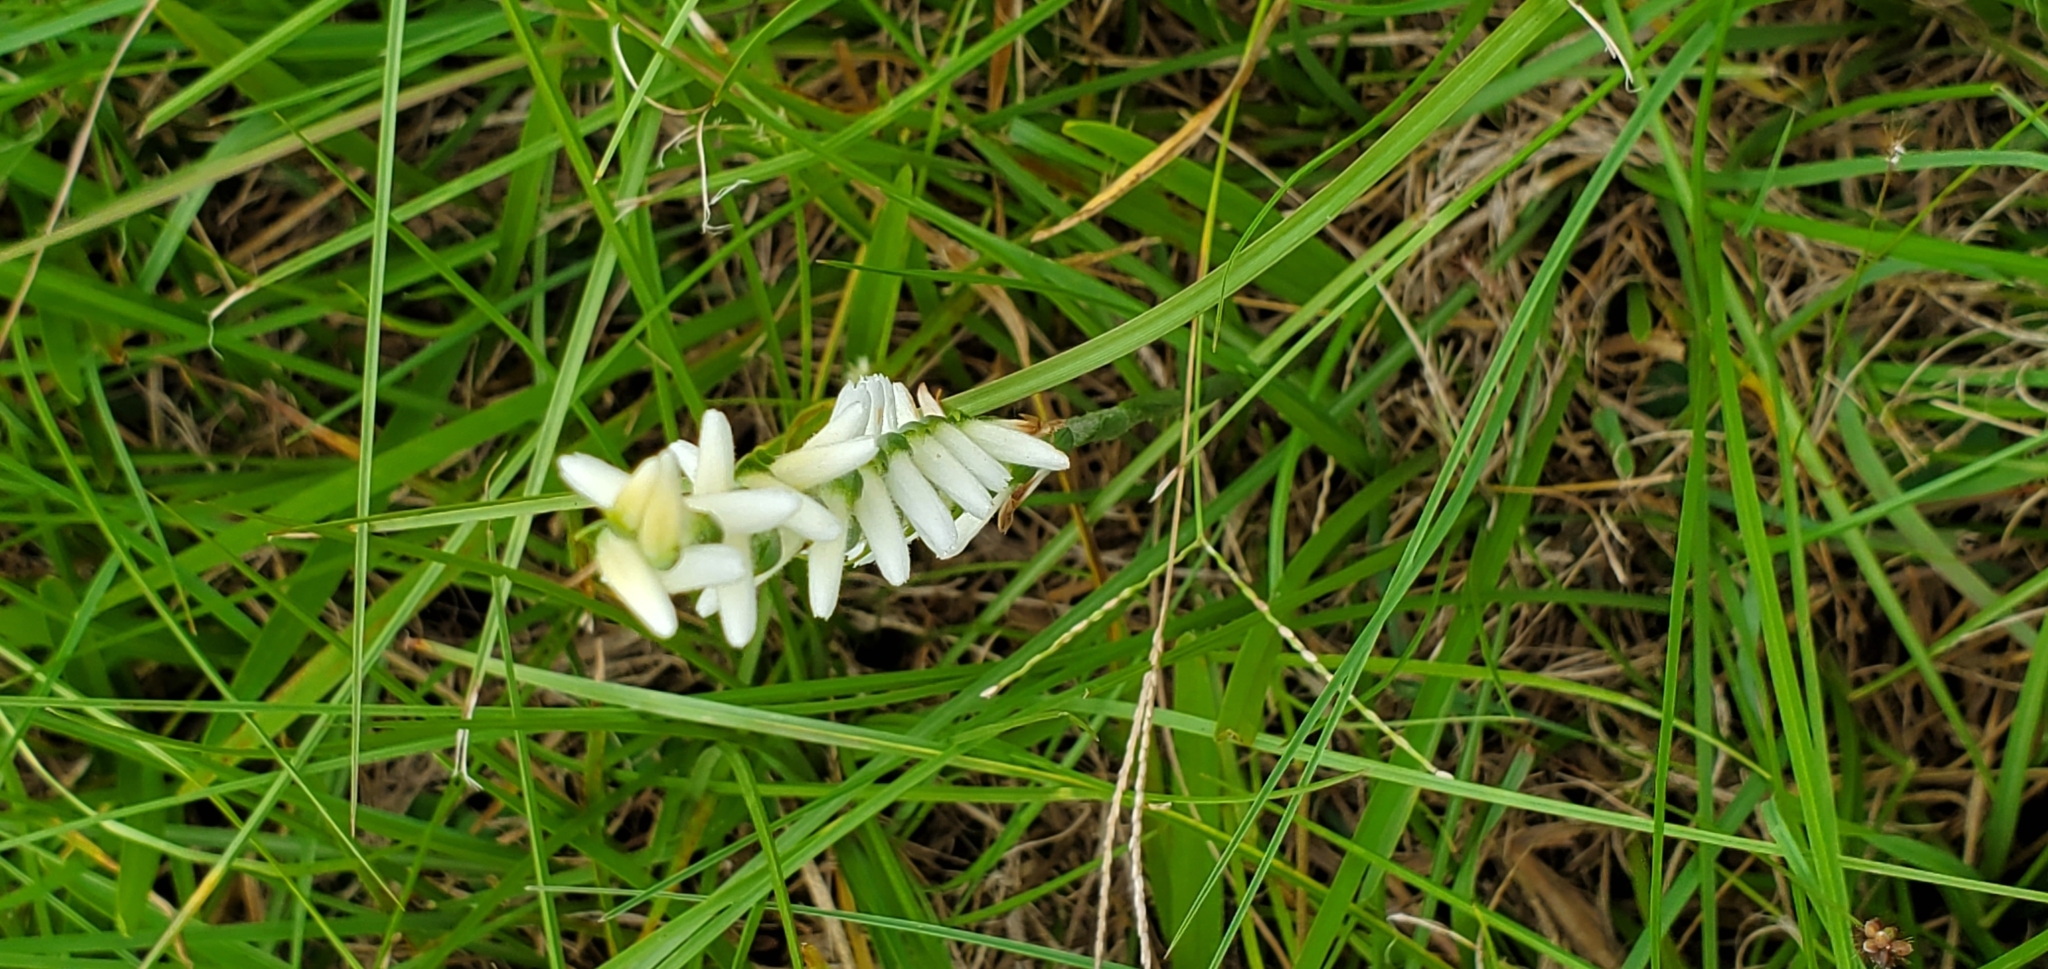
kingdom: Plantae
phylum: Tracheophyta
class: Liliopsida
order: Asparagales
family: Orchidaceae
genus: Spiranthes
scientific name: Spiranthes cernua
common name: Dropping ladies'-tresses
